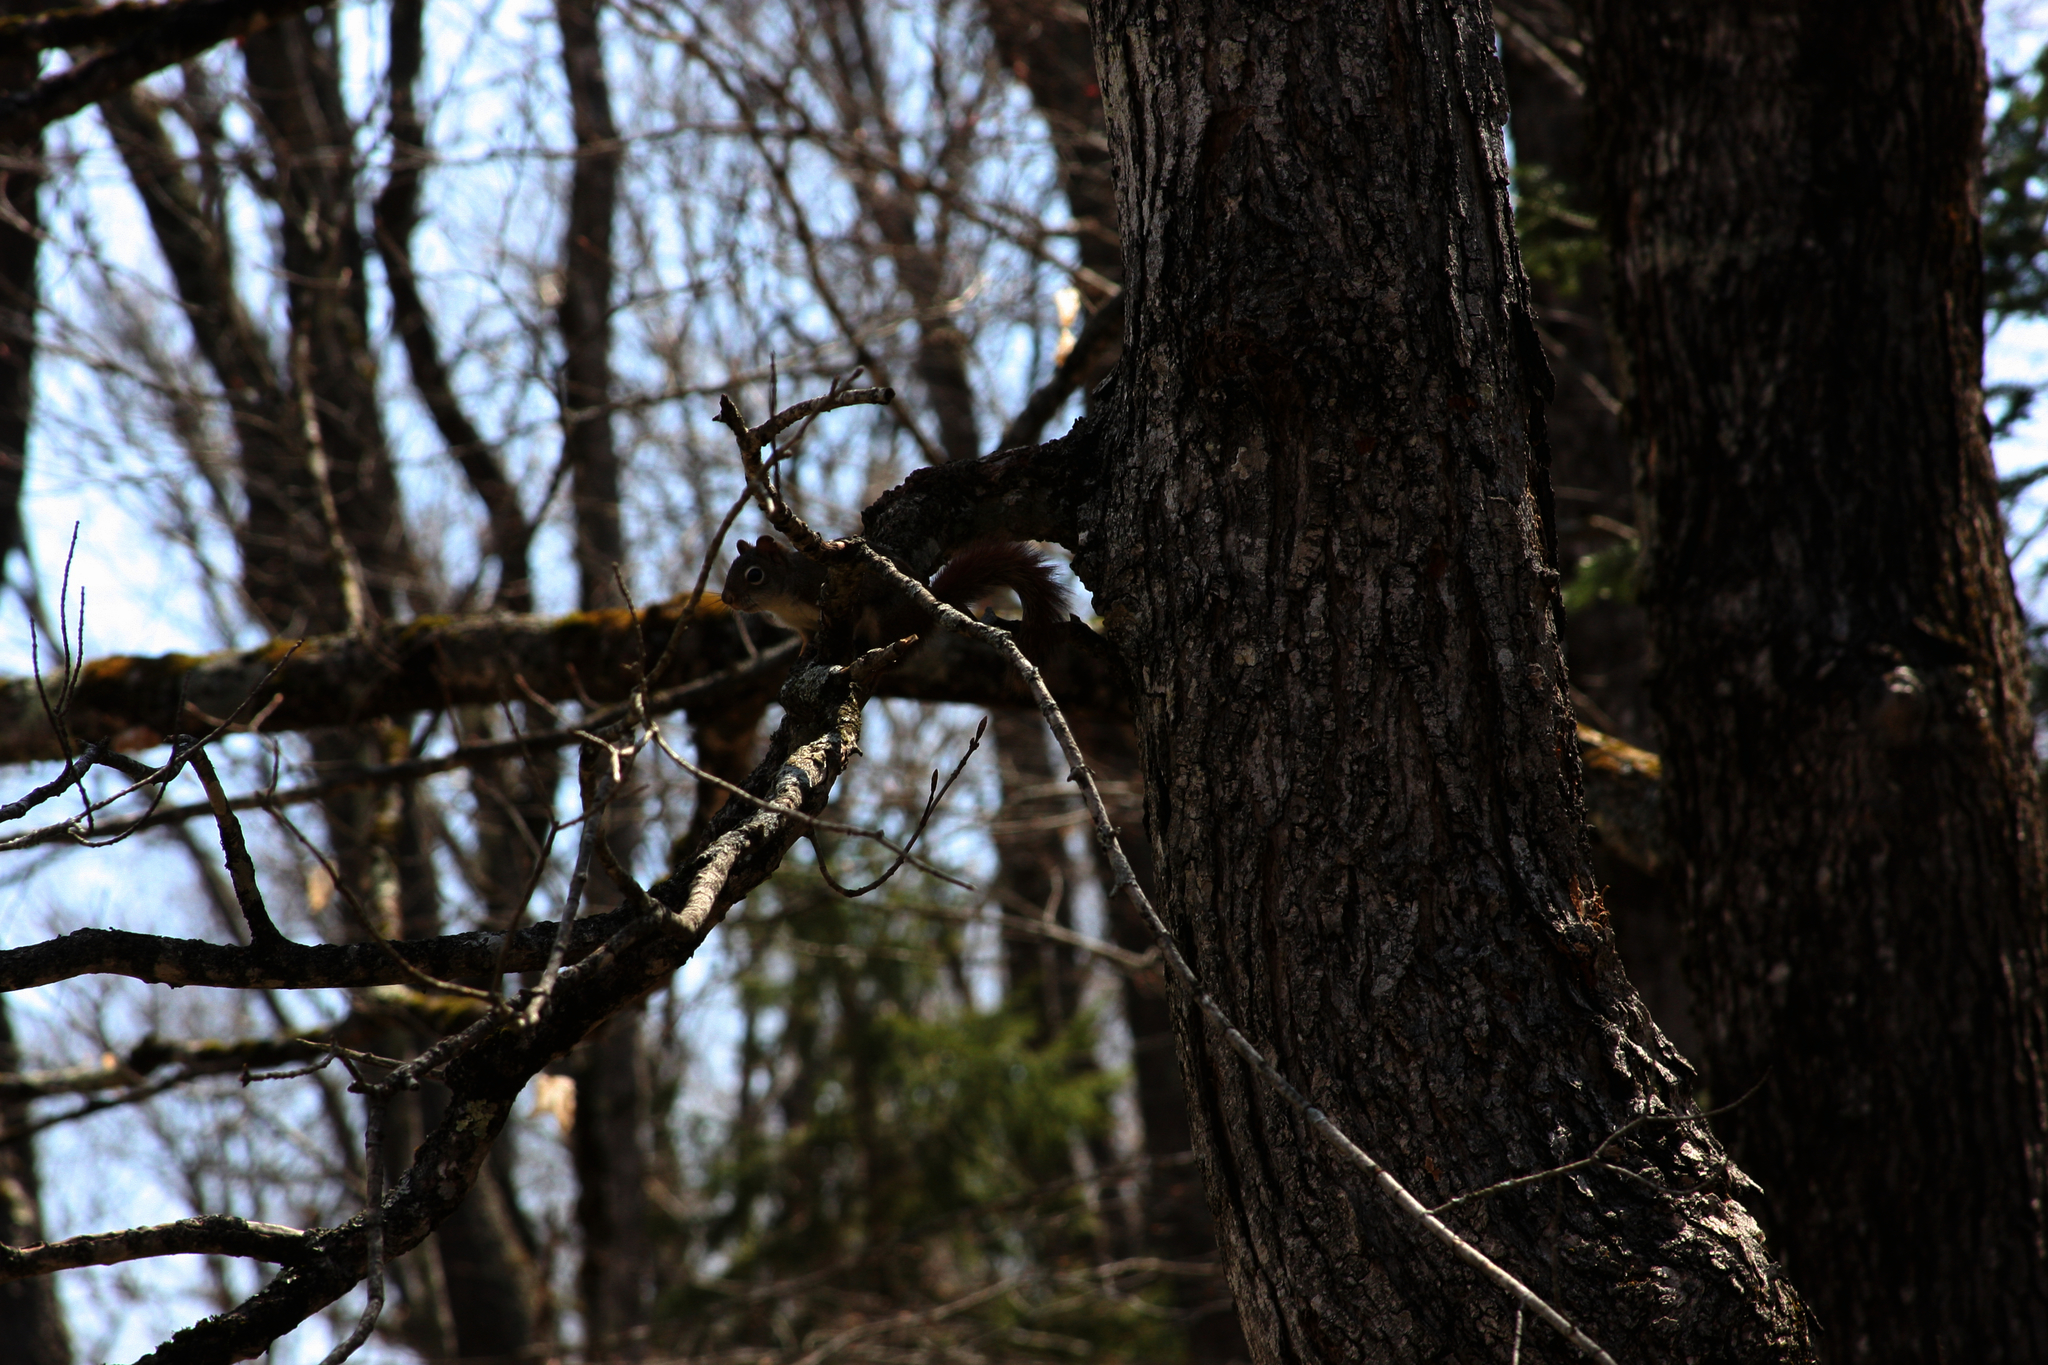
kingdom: Animalia
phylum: Chordata
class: Mammalia
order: Rodentia
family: Sciuridae
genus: Tamiasciurus
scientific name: Tamiasciurus hudsonicus
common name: Red squirrel
